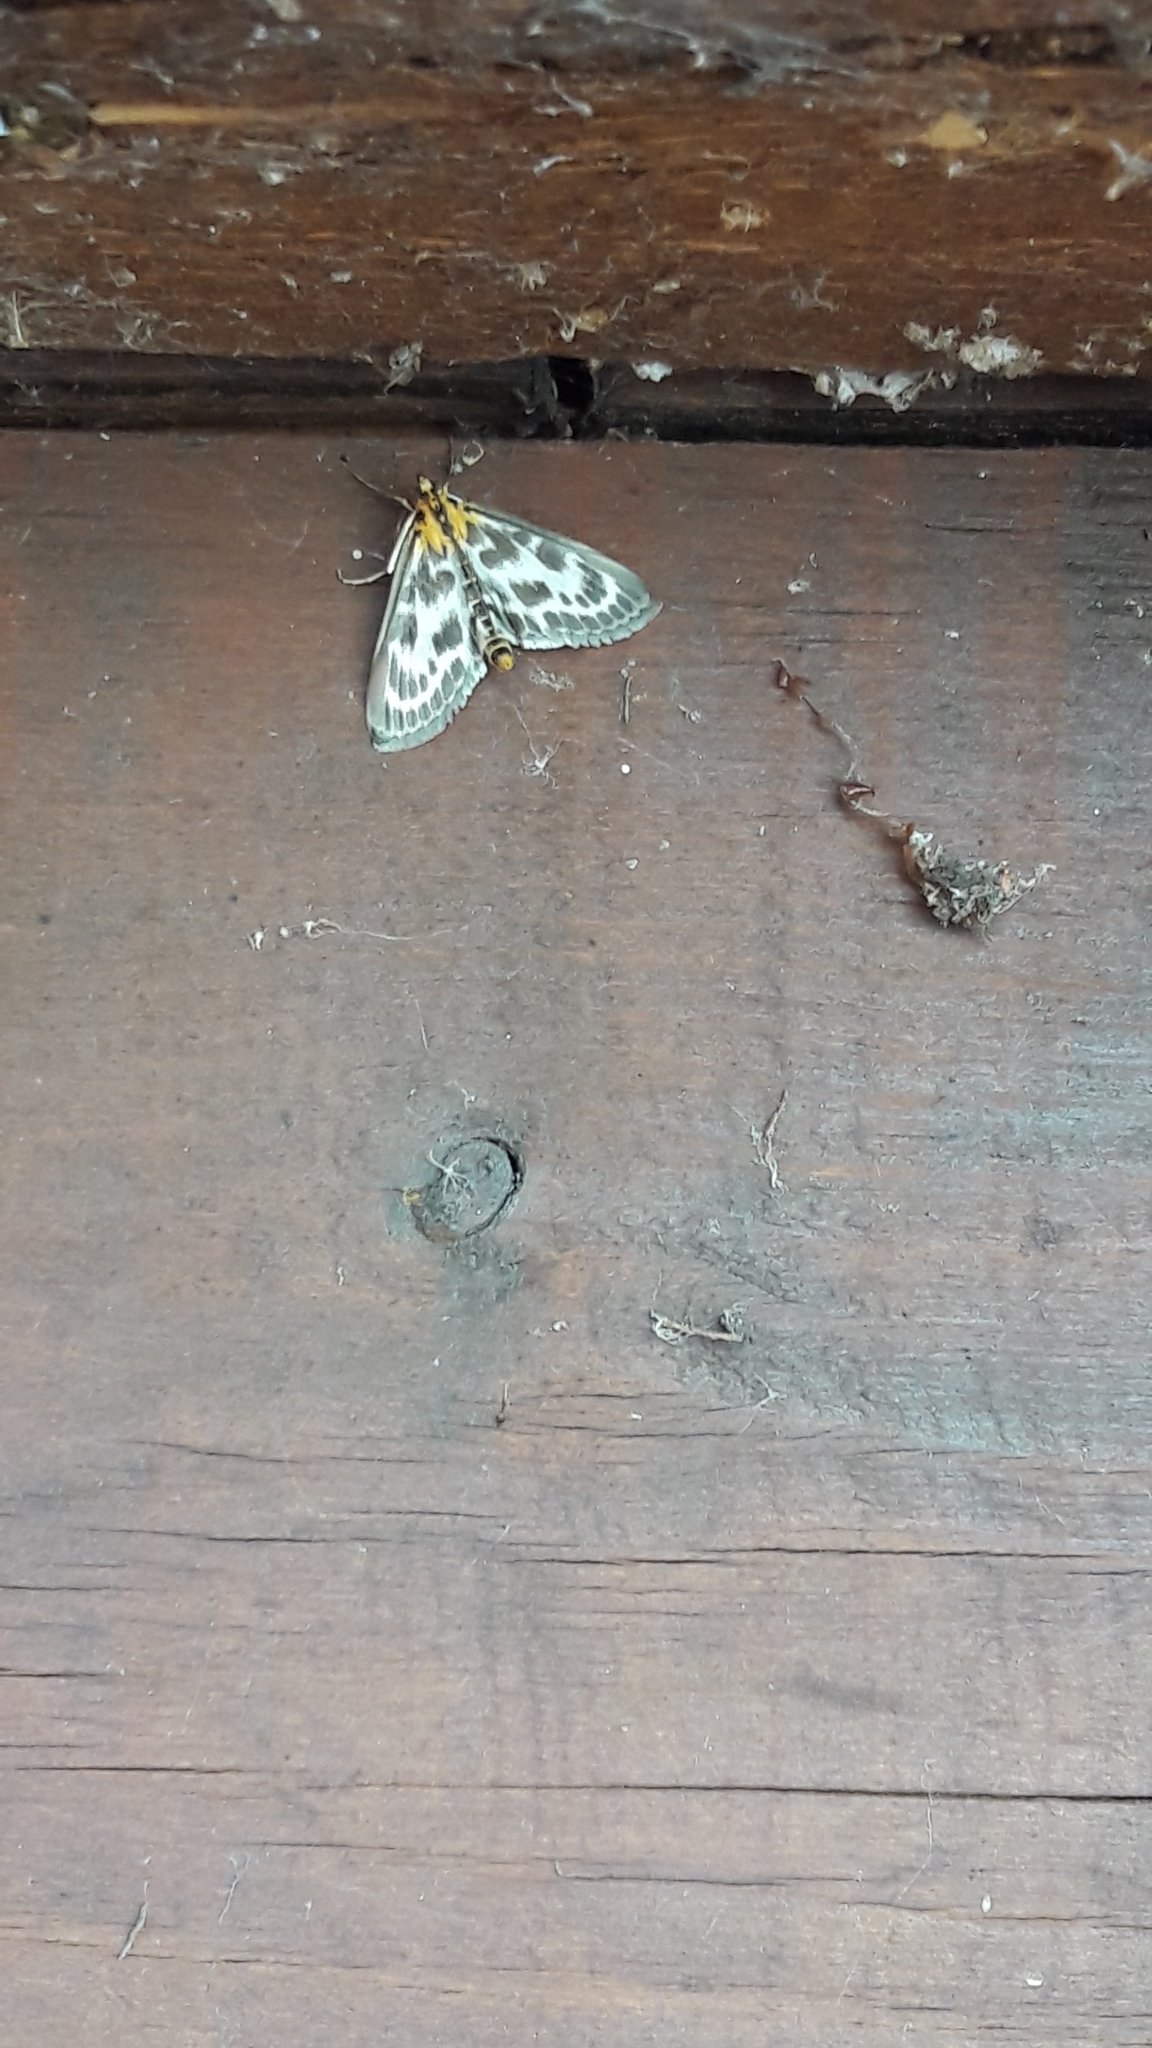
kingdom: Animalia
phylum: Arthropoda
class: Insecta
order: Lepidoptera
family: Crambidae
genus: Anania
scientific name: Anania hortulata
